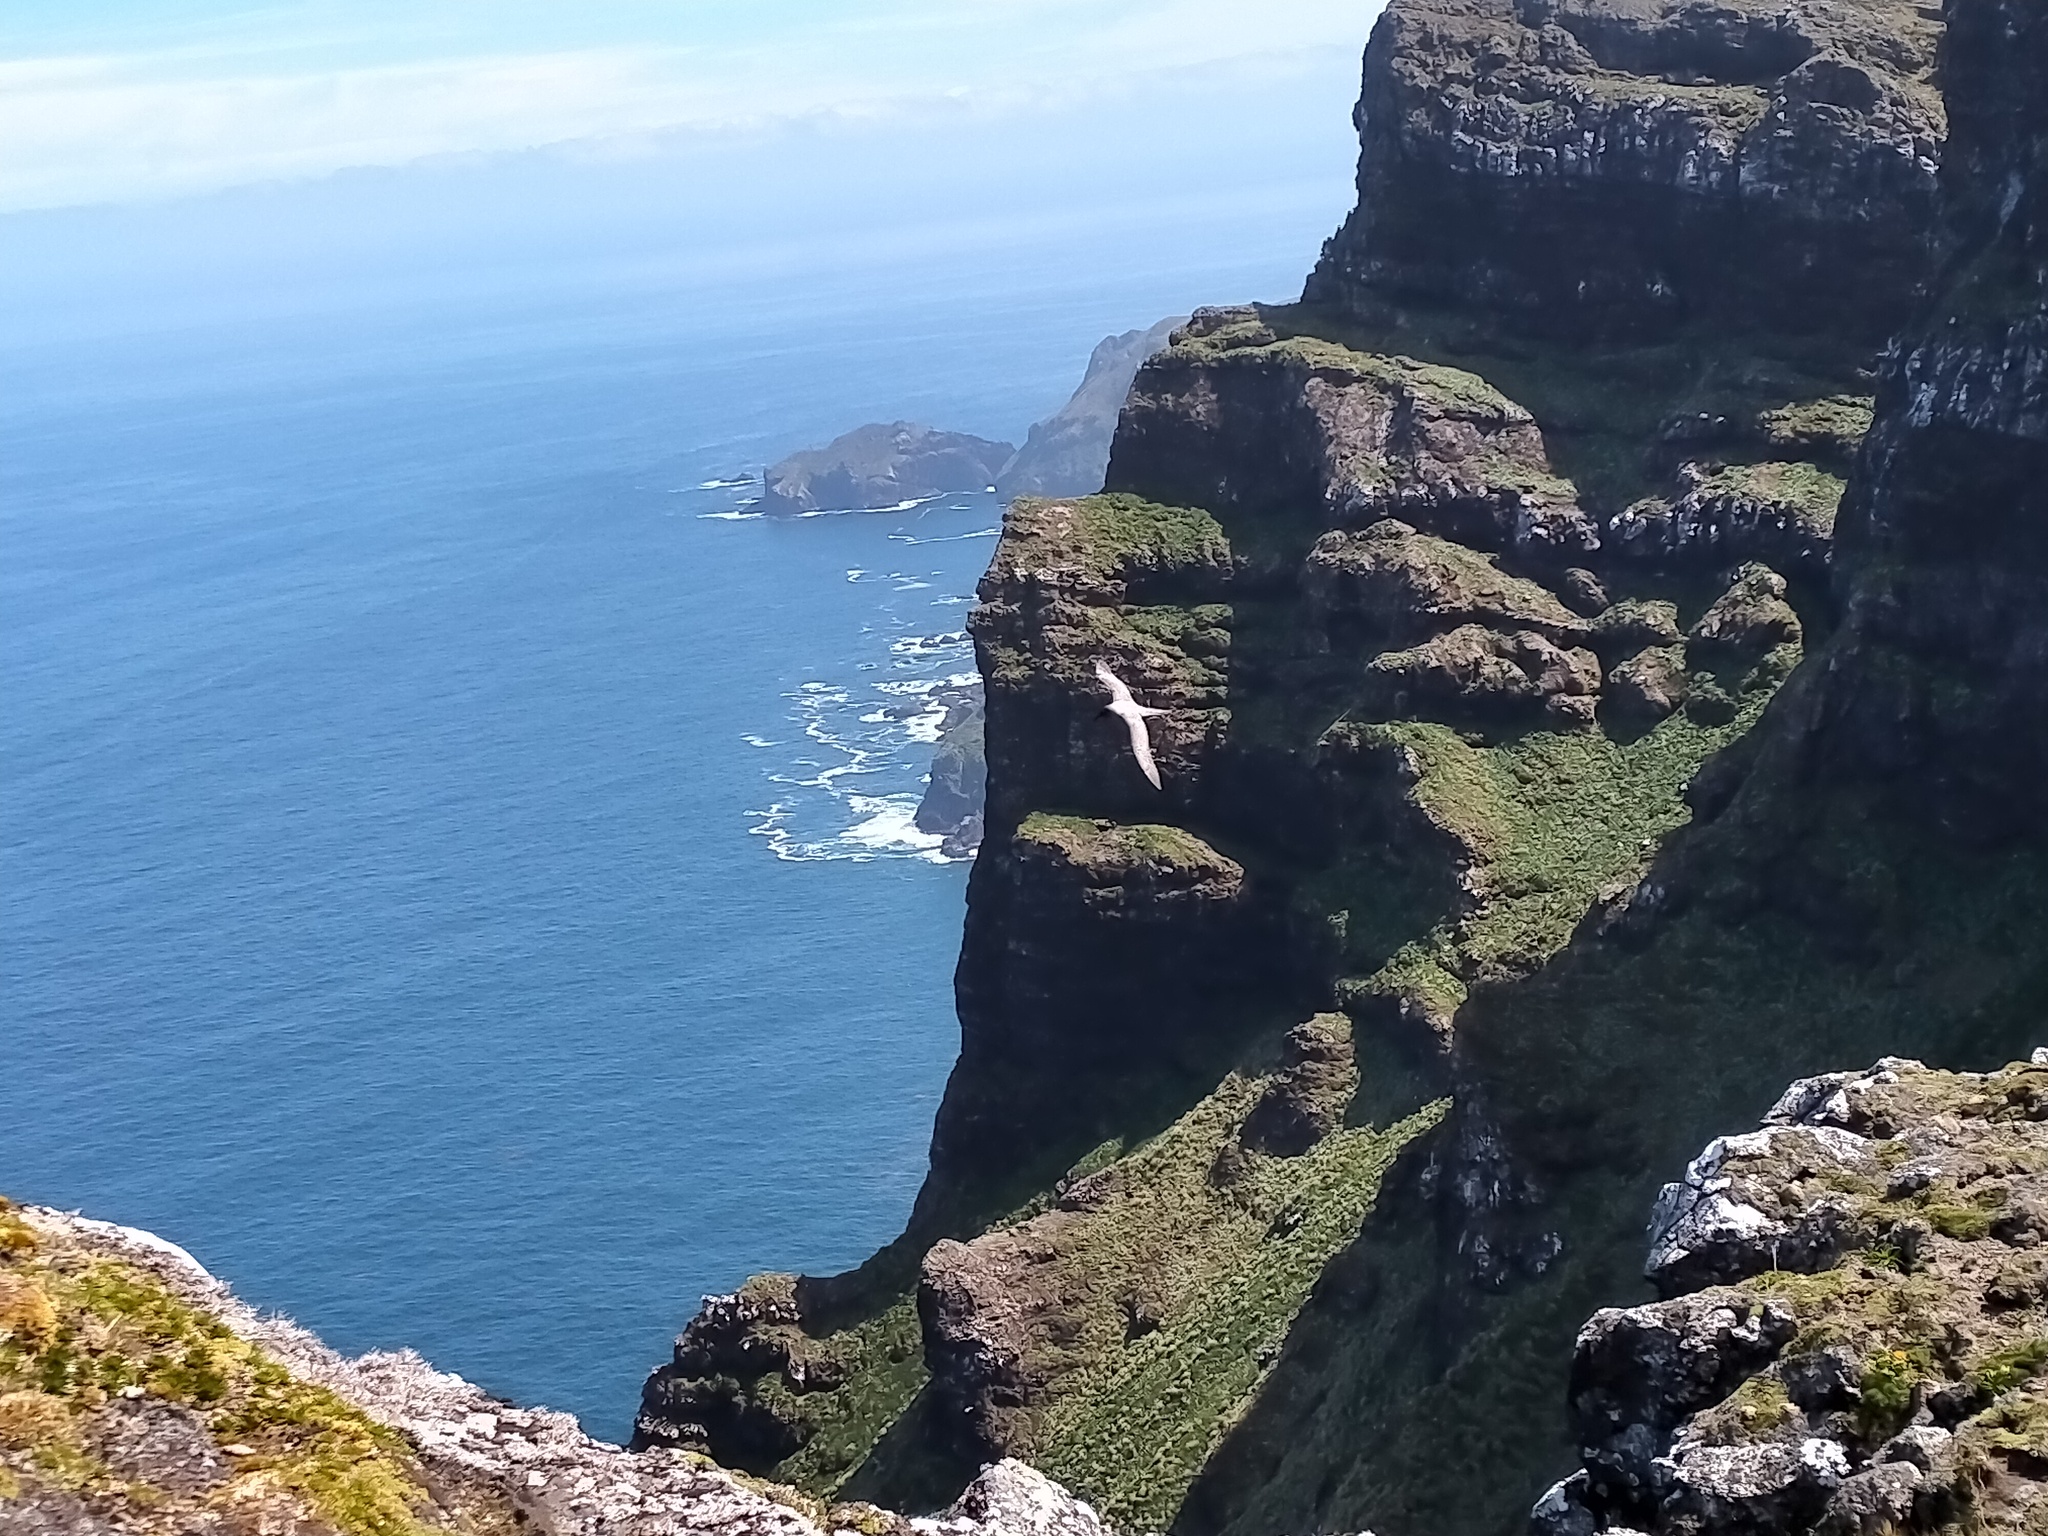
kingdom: Animalia
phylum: Chordata
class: Aves
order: Procellariiformes
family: Diomedeidae
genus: Phoebetria
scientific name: Phoebetria palpebrata
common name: Light-mantled albatross
